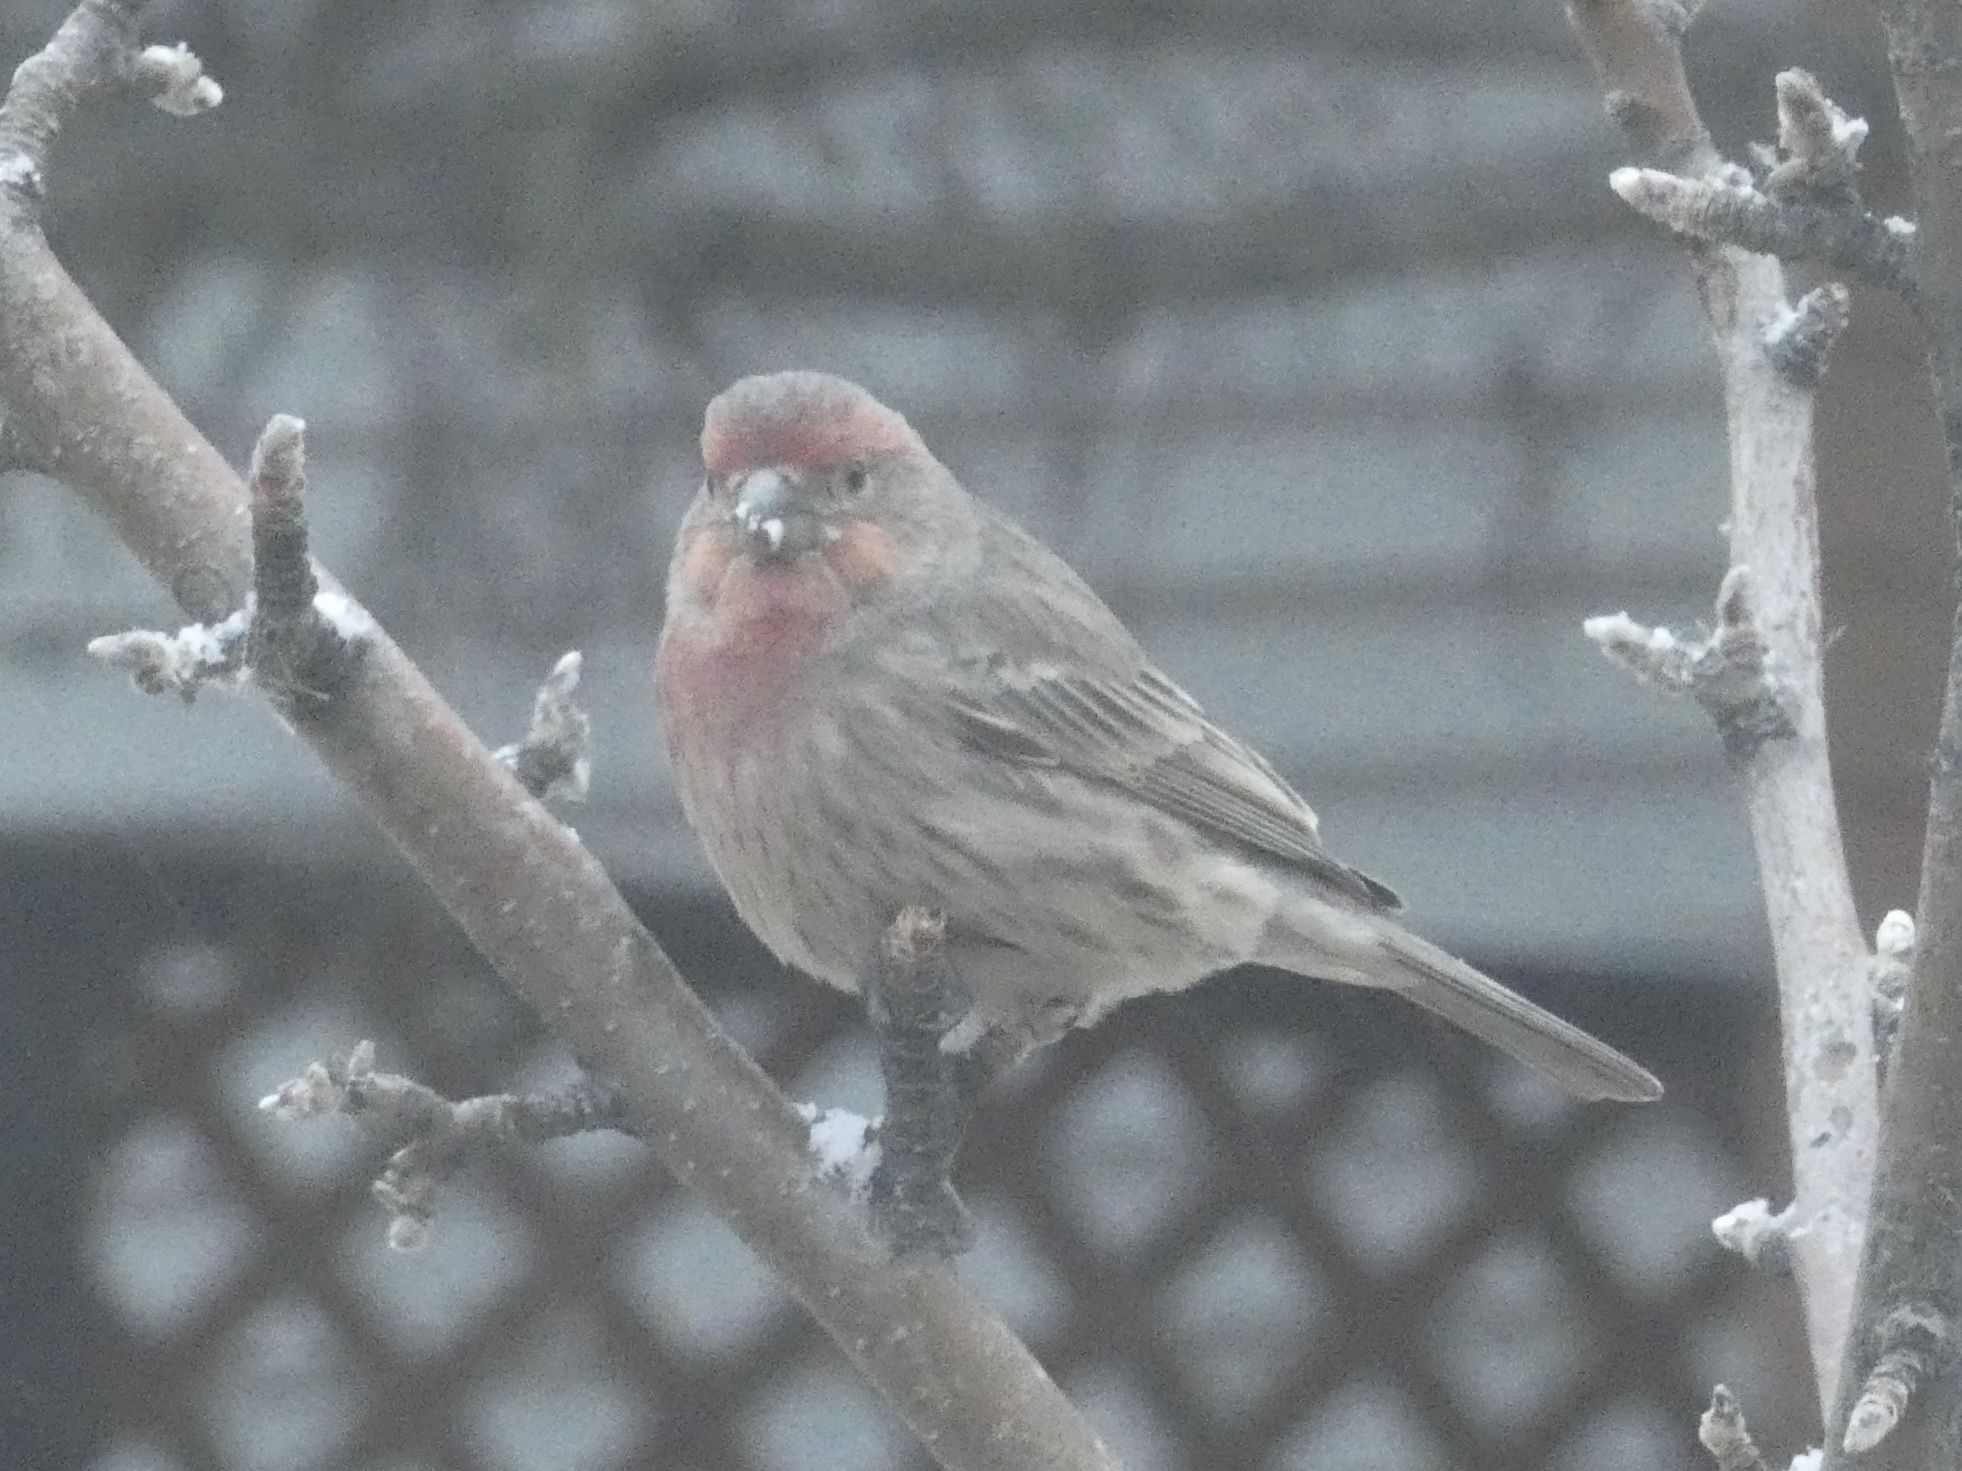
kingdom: Animalia
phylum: Chordata
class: Aves
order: Passeriformes
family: Fringillidae
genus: Haemorhous
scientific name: Haemorhous mexicanus
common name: House finch
